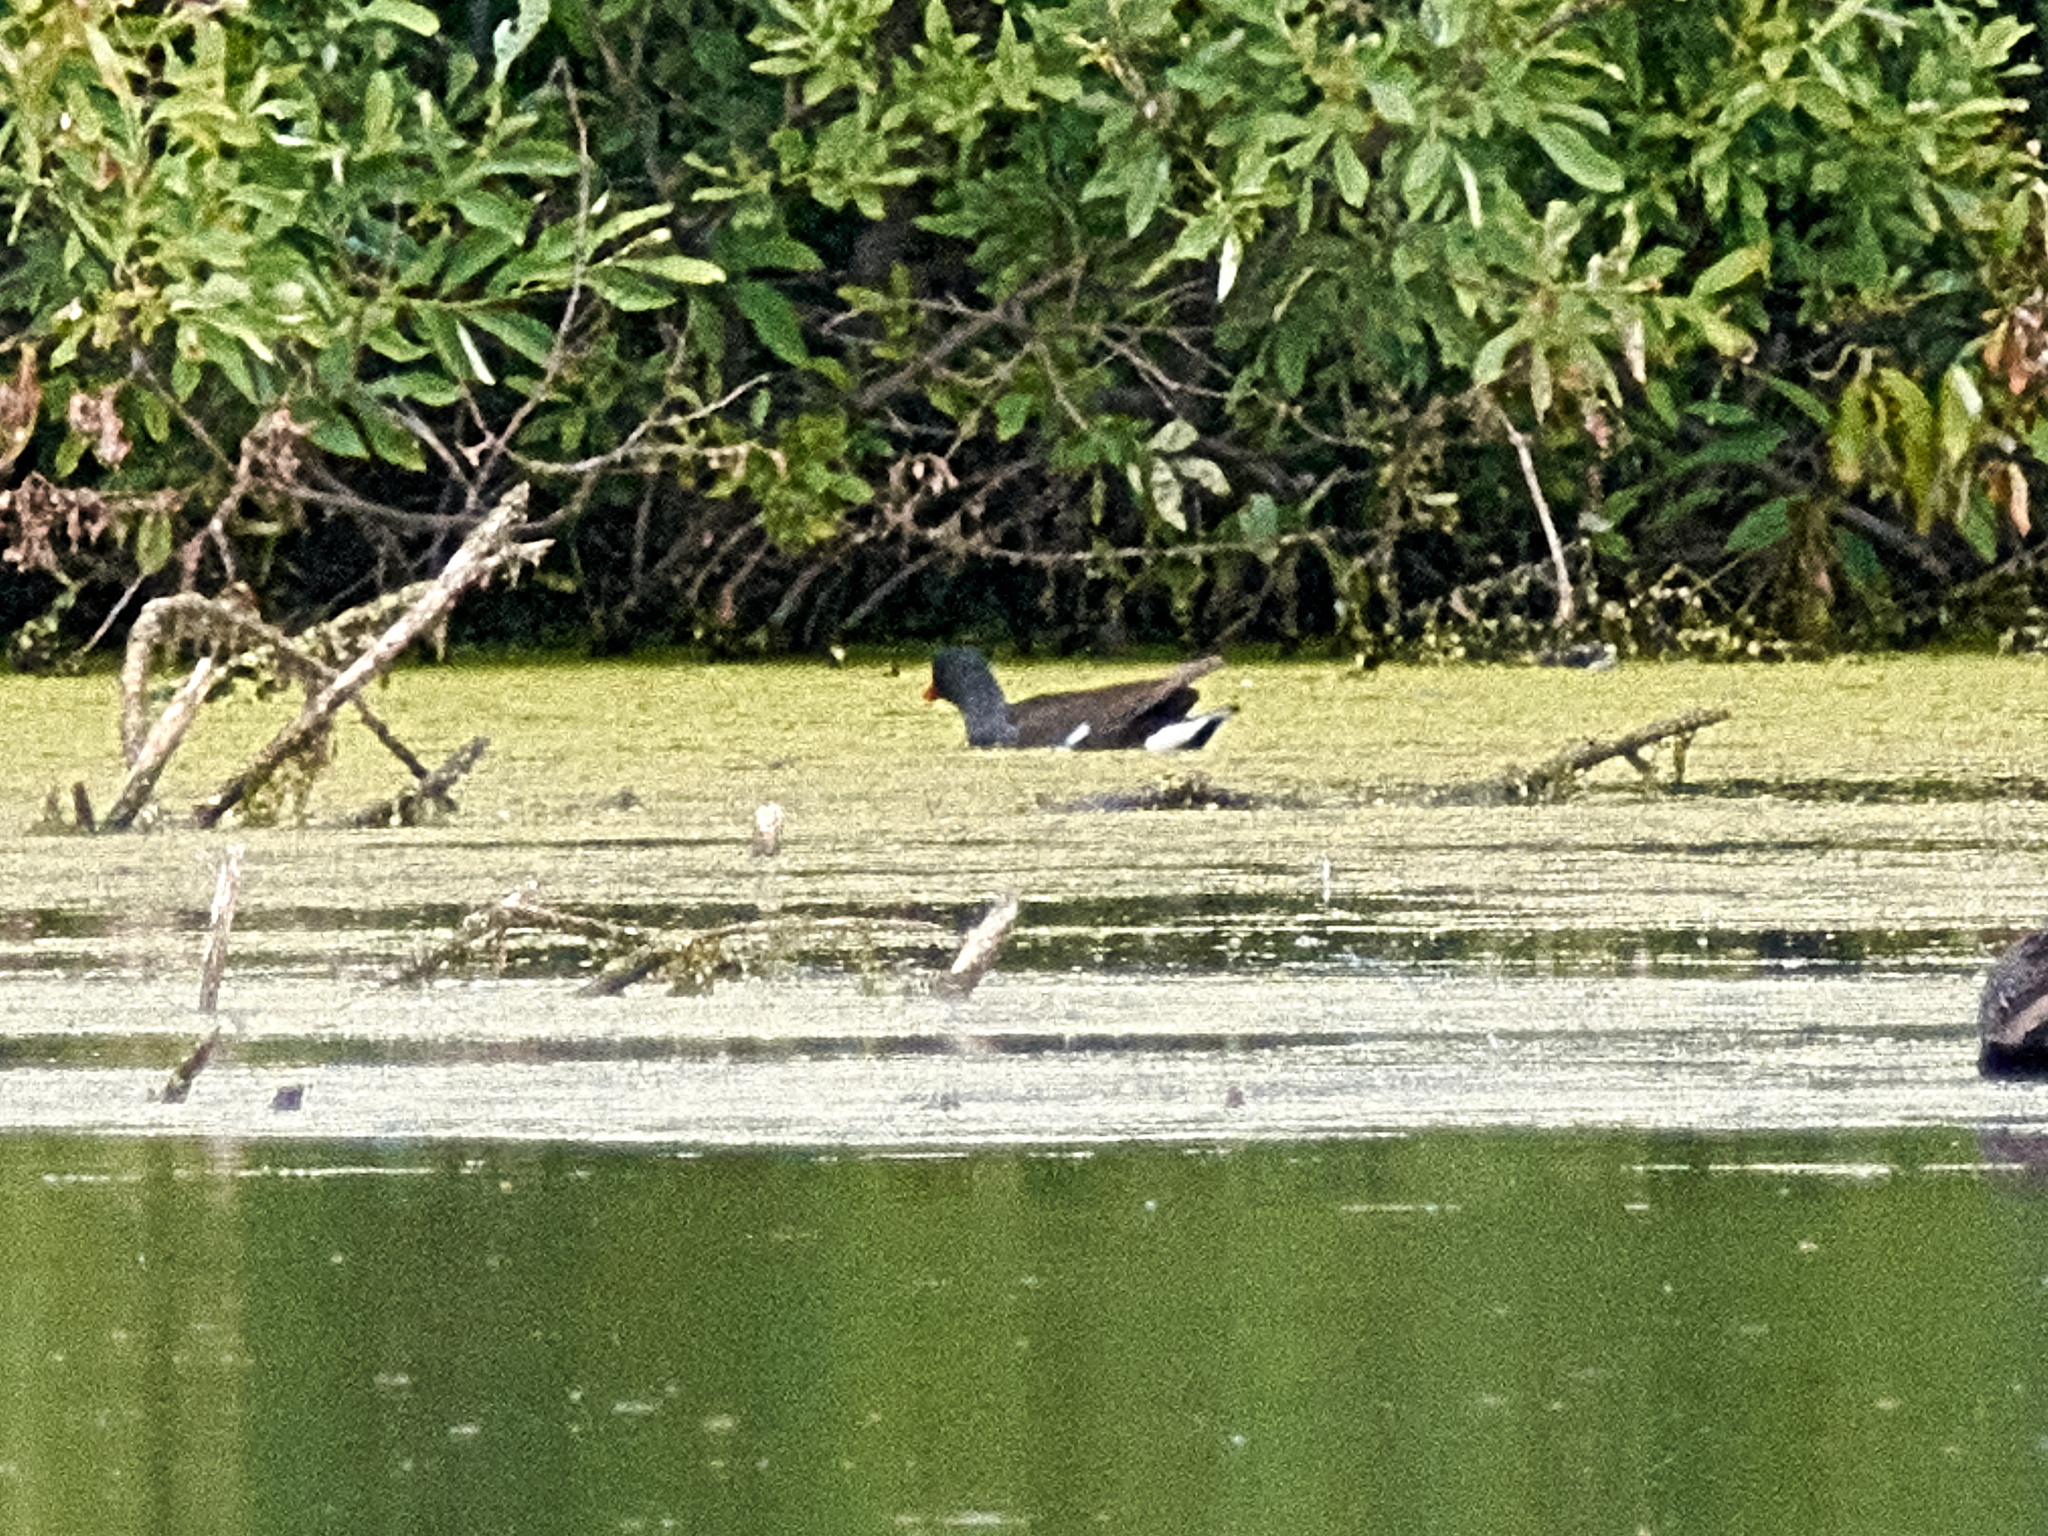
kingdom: Animalia
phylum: Chordata
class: Aves
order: Gruiformes
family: Rallidae
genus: Gallinula
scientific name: Gallinula chloropus
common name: Common moorhen
